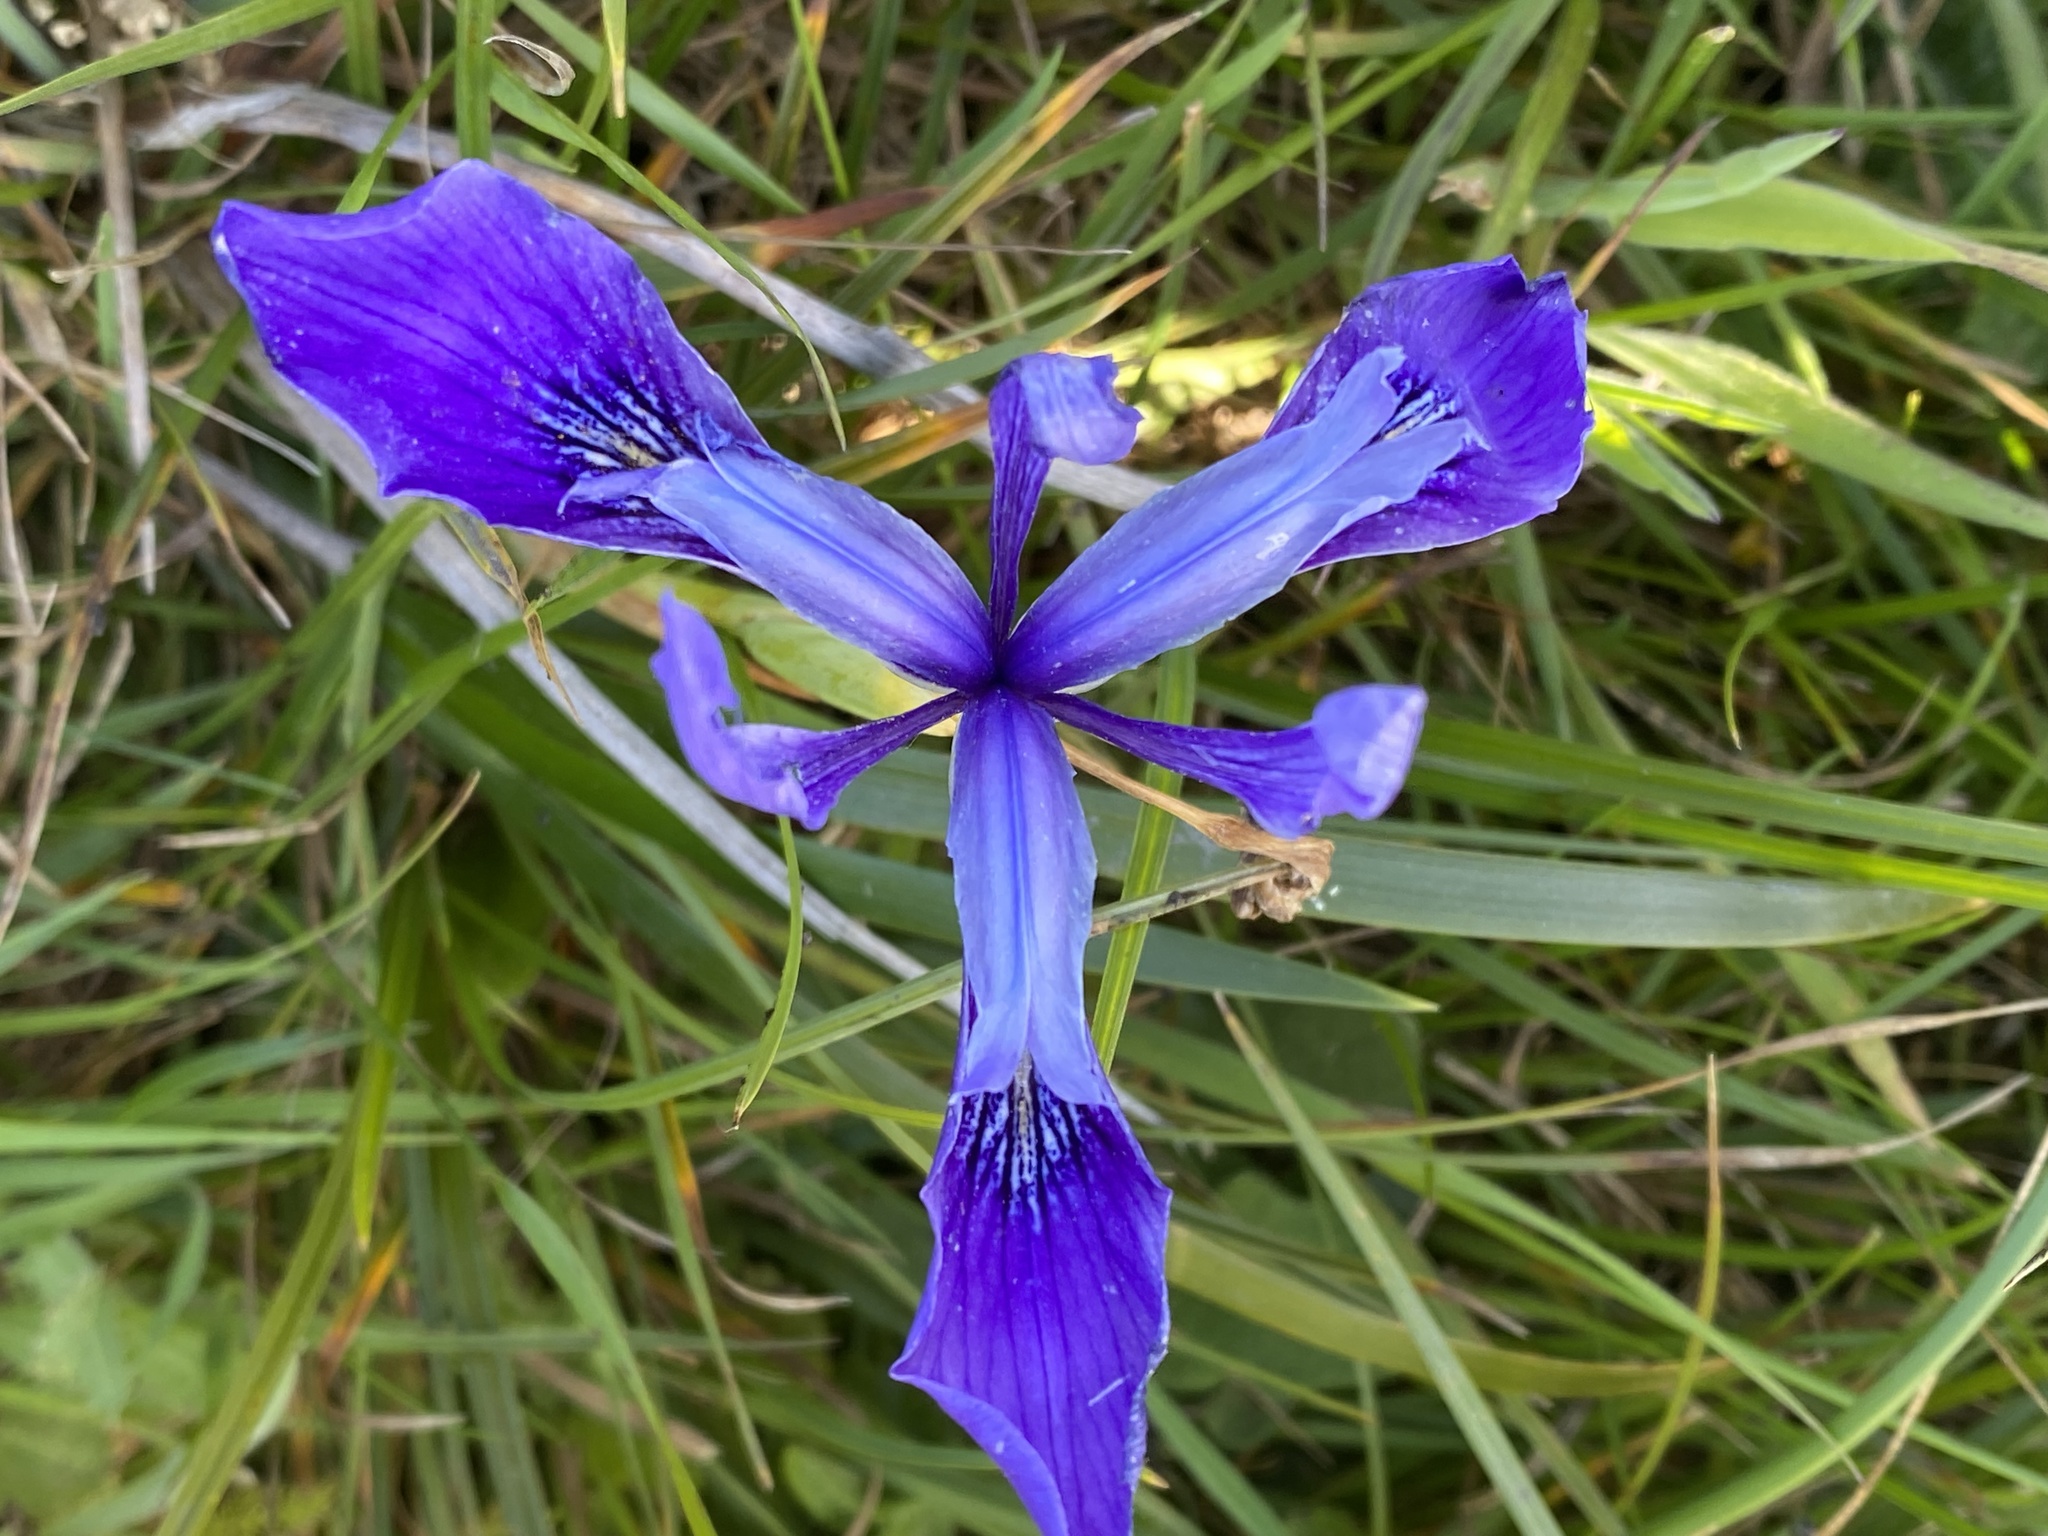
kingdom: Plantae
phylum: Tracheophyta
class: Liliopsida
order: Asparagales
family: Iridaceae
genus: Iris
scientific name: Iris douglasiana
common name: Marin iris
